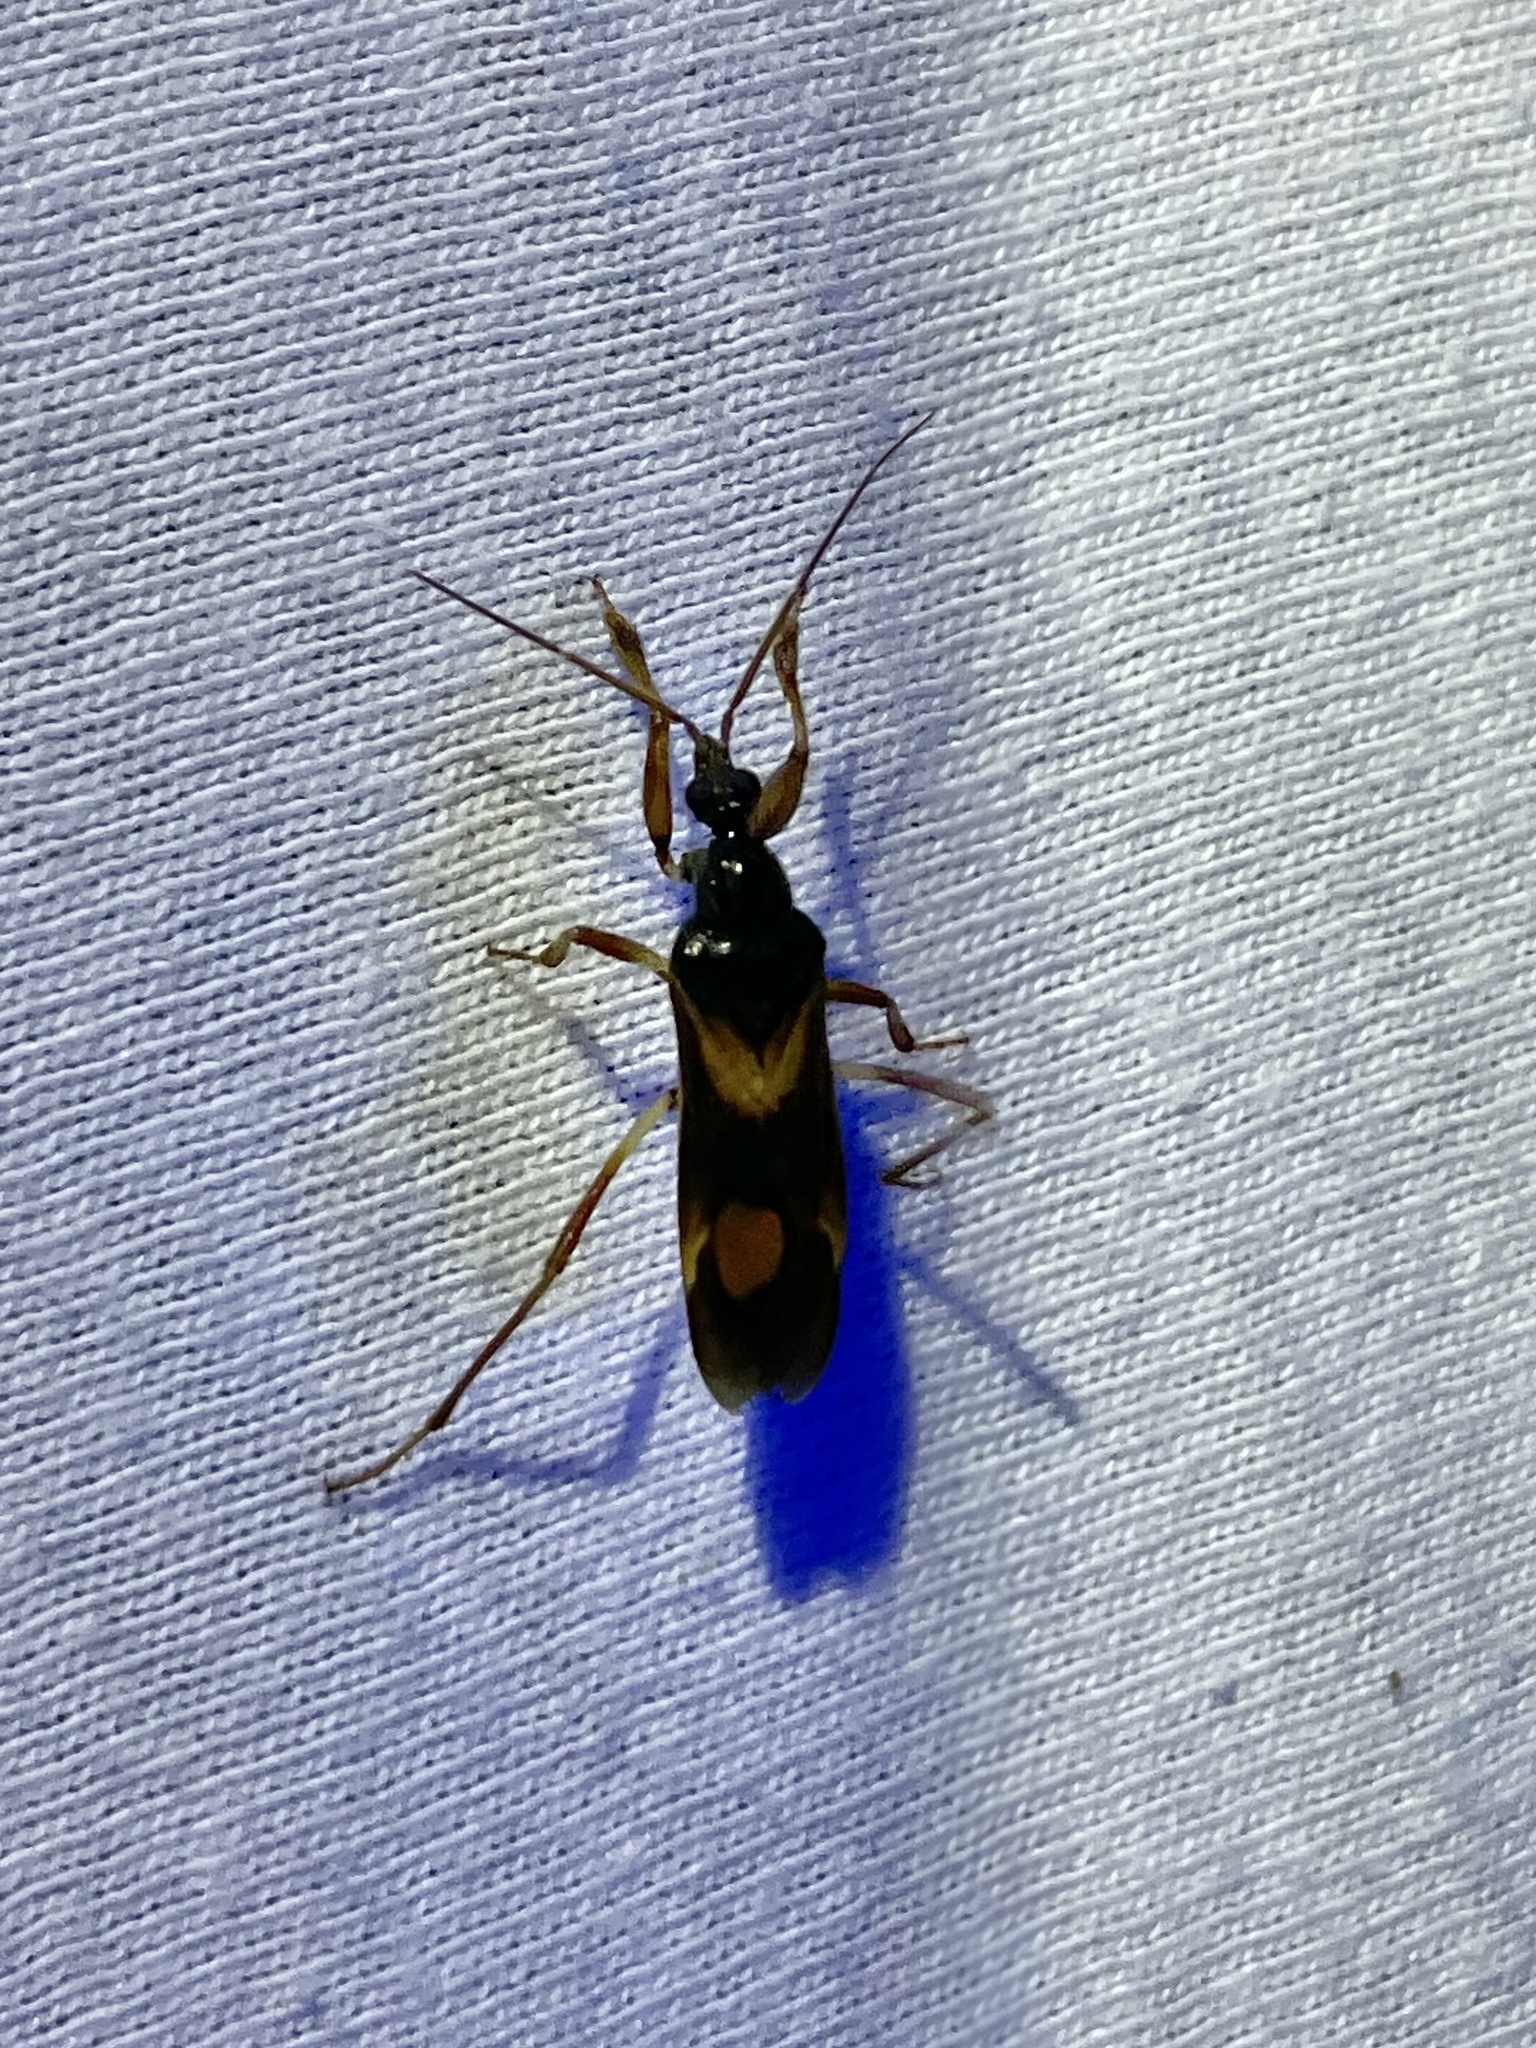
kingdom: Animalia
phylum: Arthropoda
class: Insecta
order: Hemiptera
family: Reduviidae
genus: Rasahus
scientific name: Rasahus hamatus
